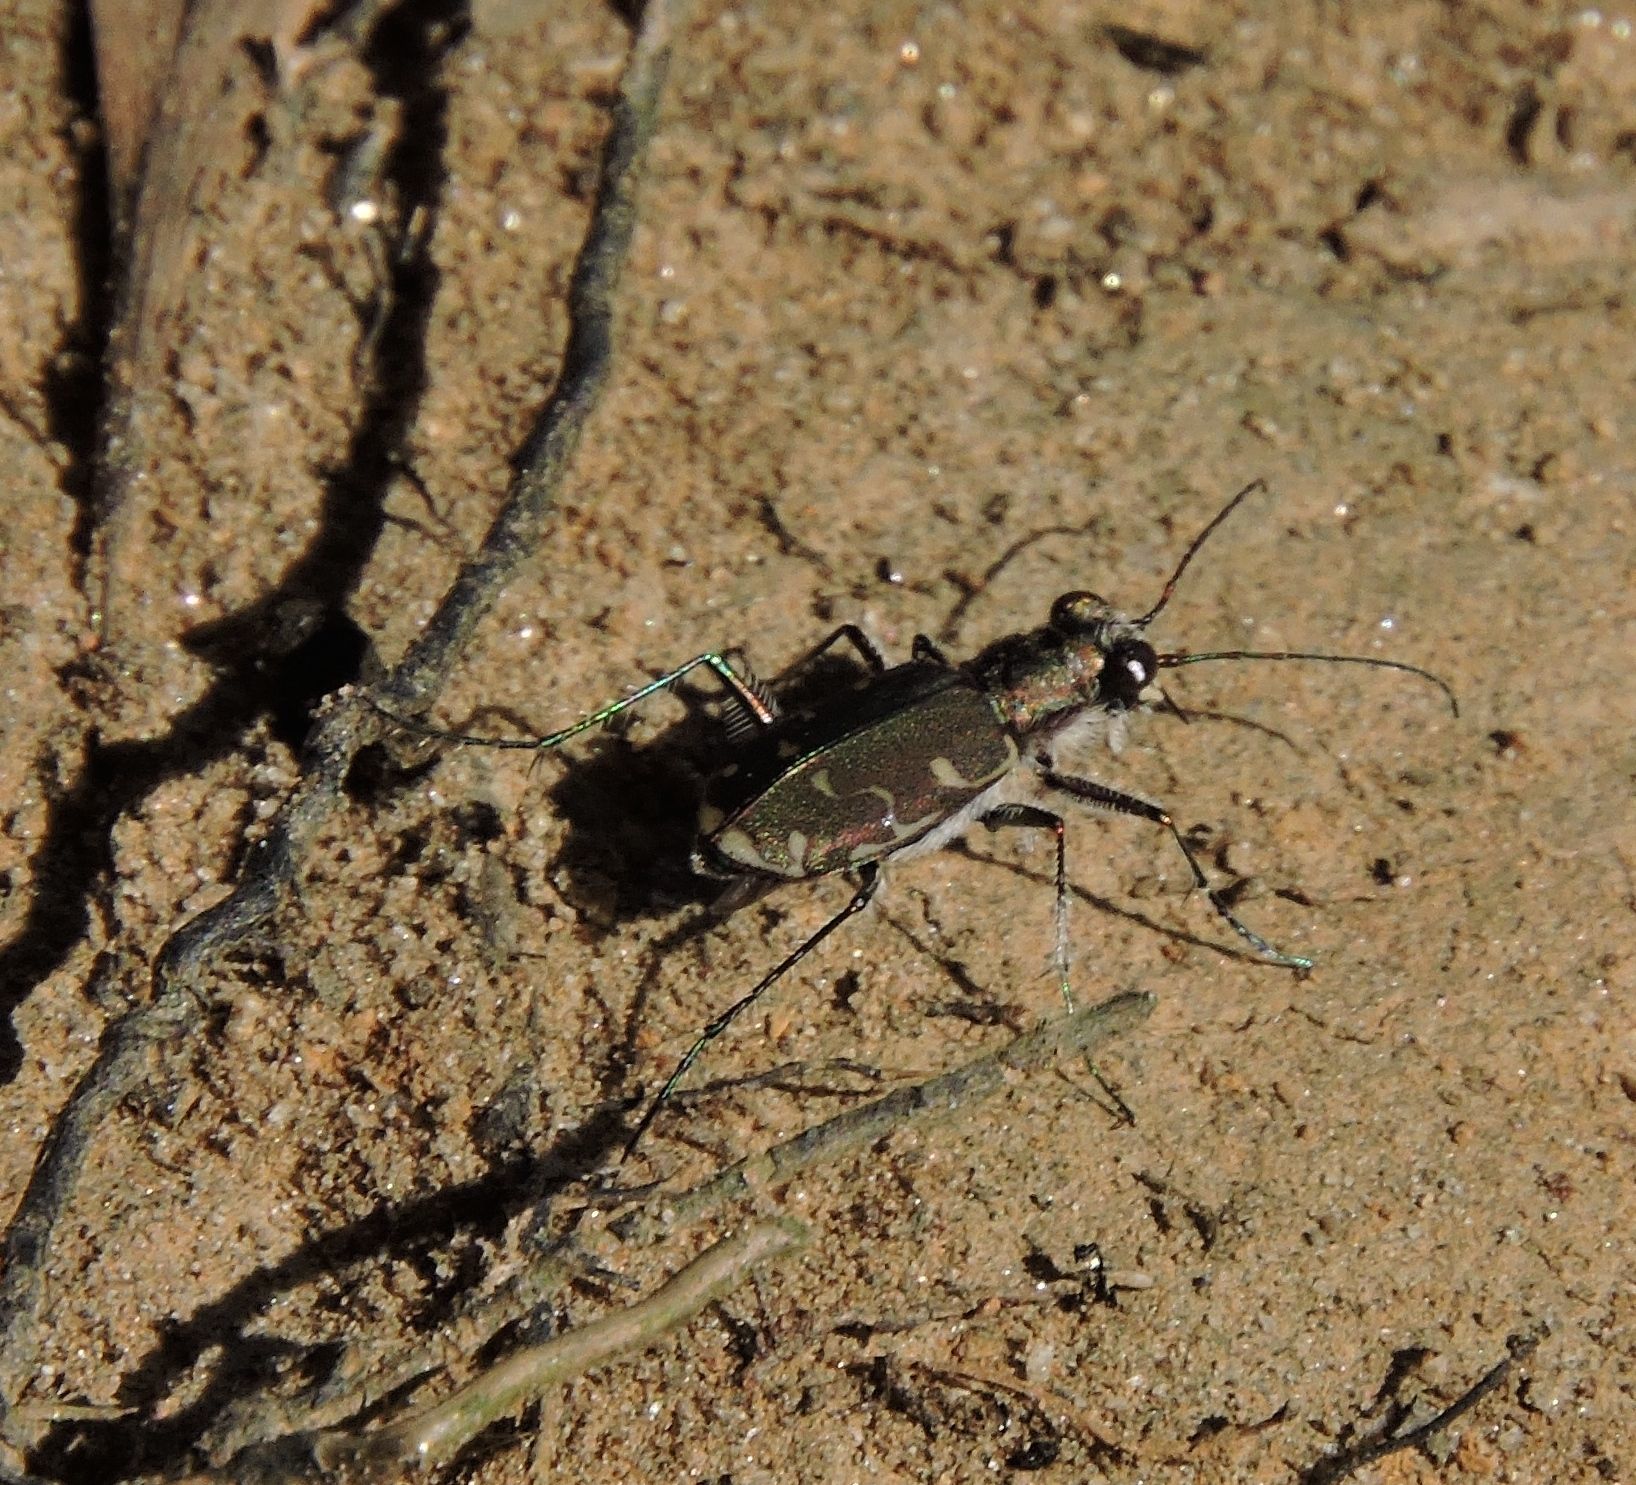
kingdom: Animalia
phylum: Arthropoda
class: Insecta
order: Coleoptera
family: Carabidae
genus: Cicindela
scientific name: Cicindela repanda
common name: Bronzed tiger beetle
